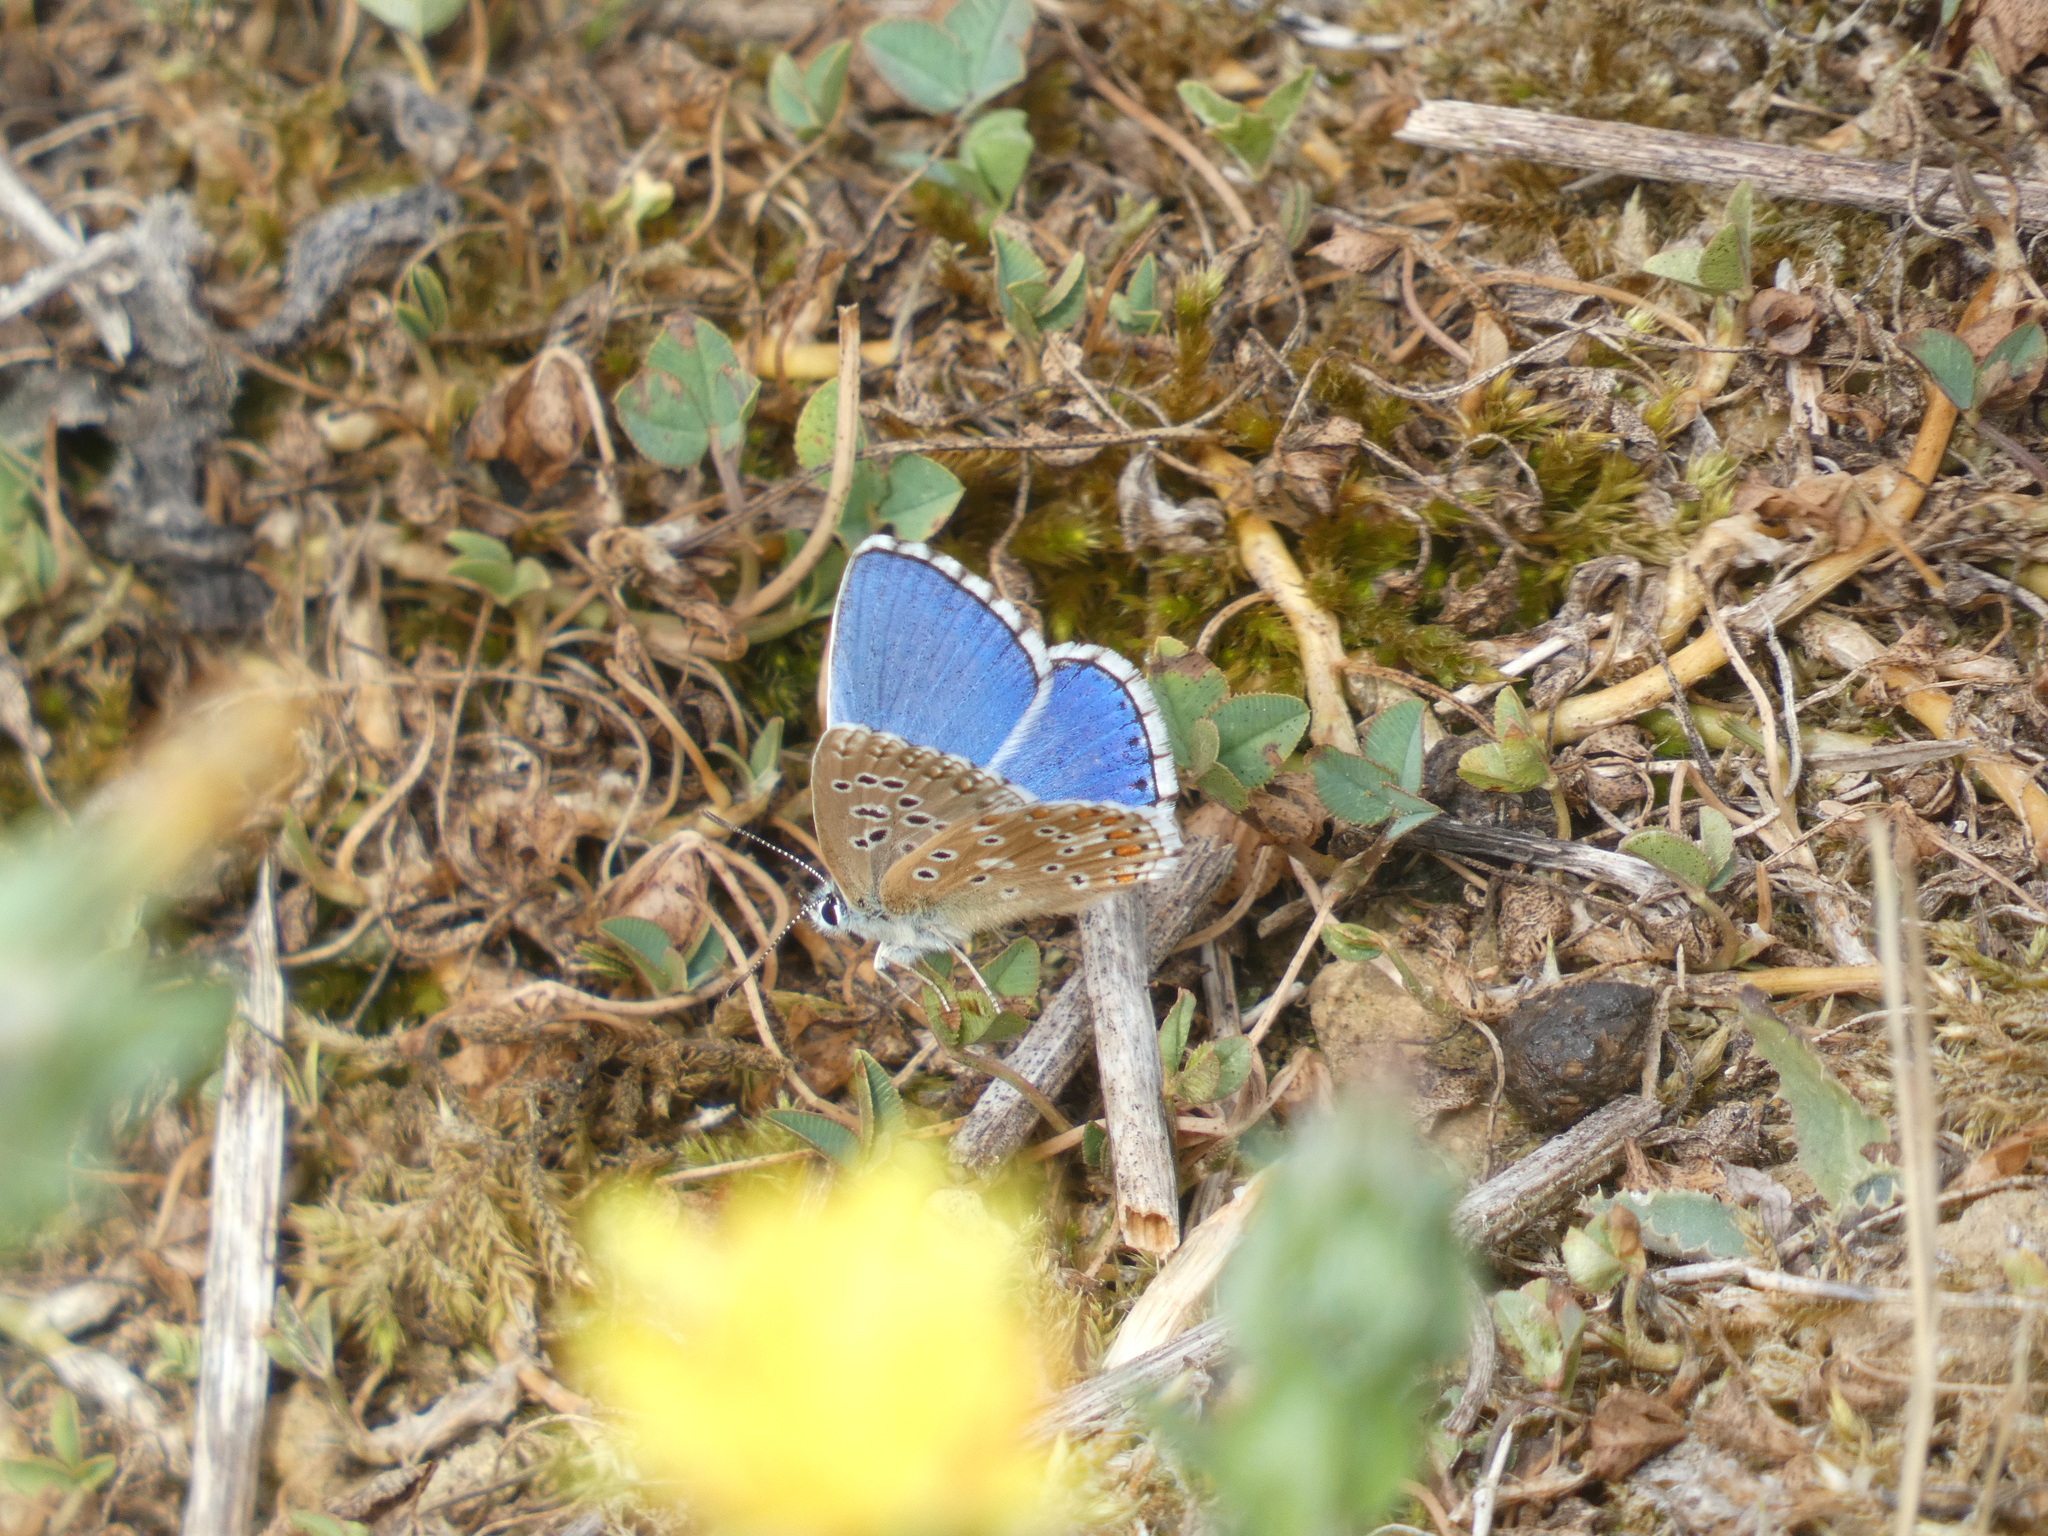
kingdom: Animalia
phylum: Arthropoda
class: Insecta
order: Lepidoptera
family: Lycaenidae
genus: Lysandra
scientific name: Lysandra bellargus
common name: Adonis blue
